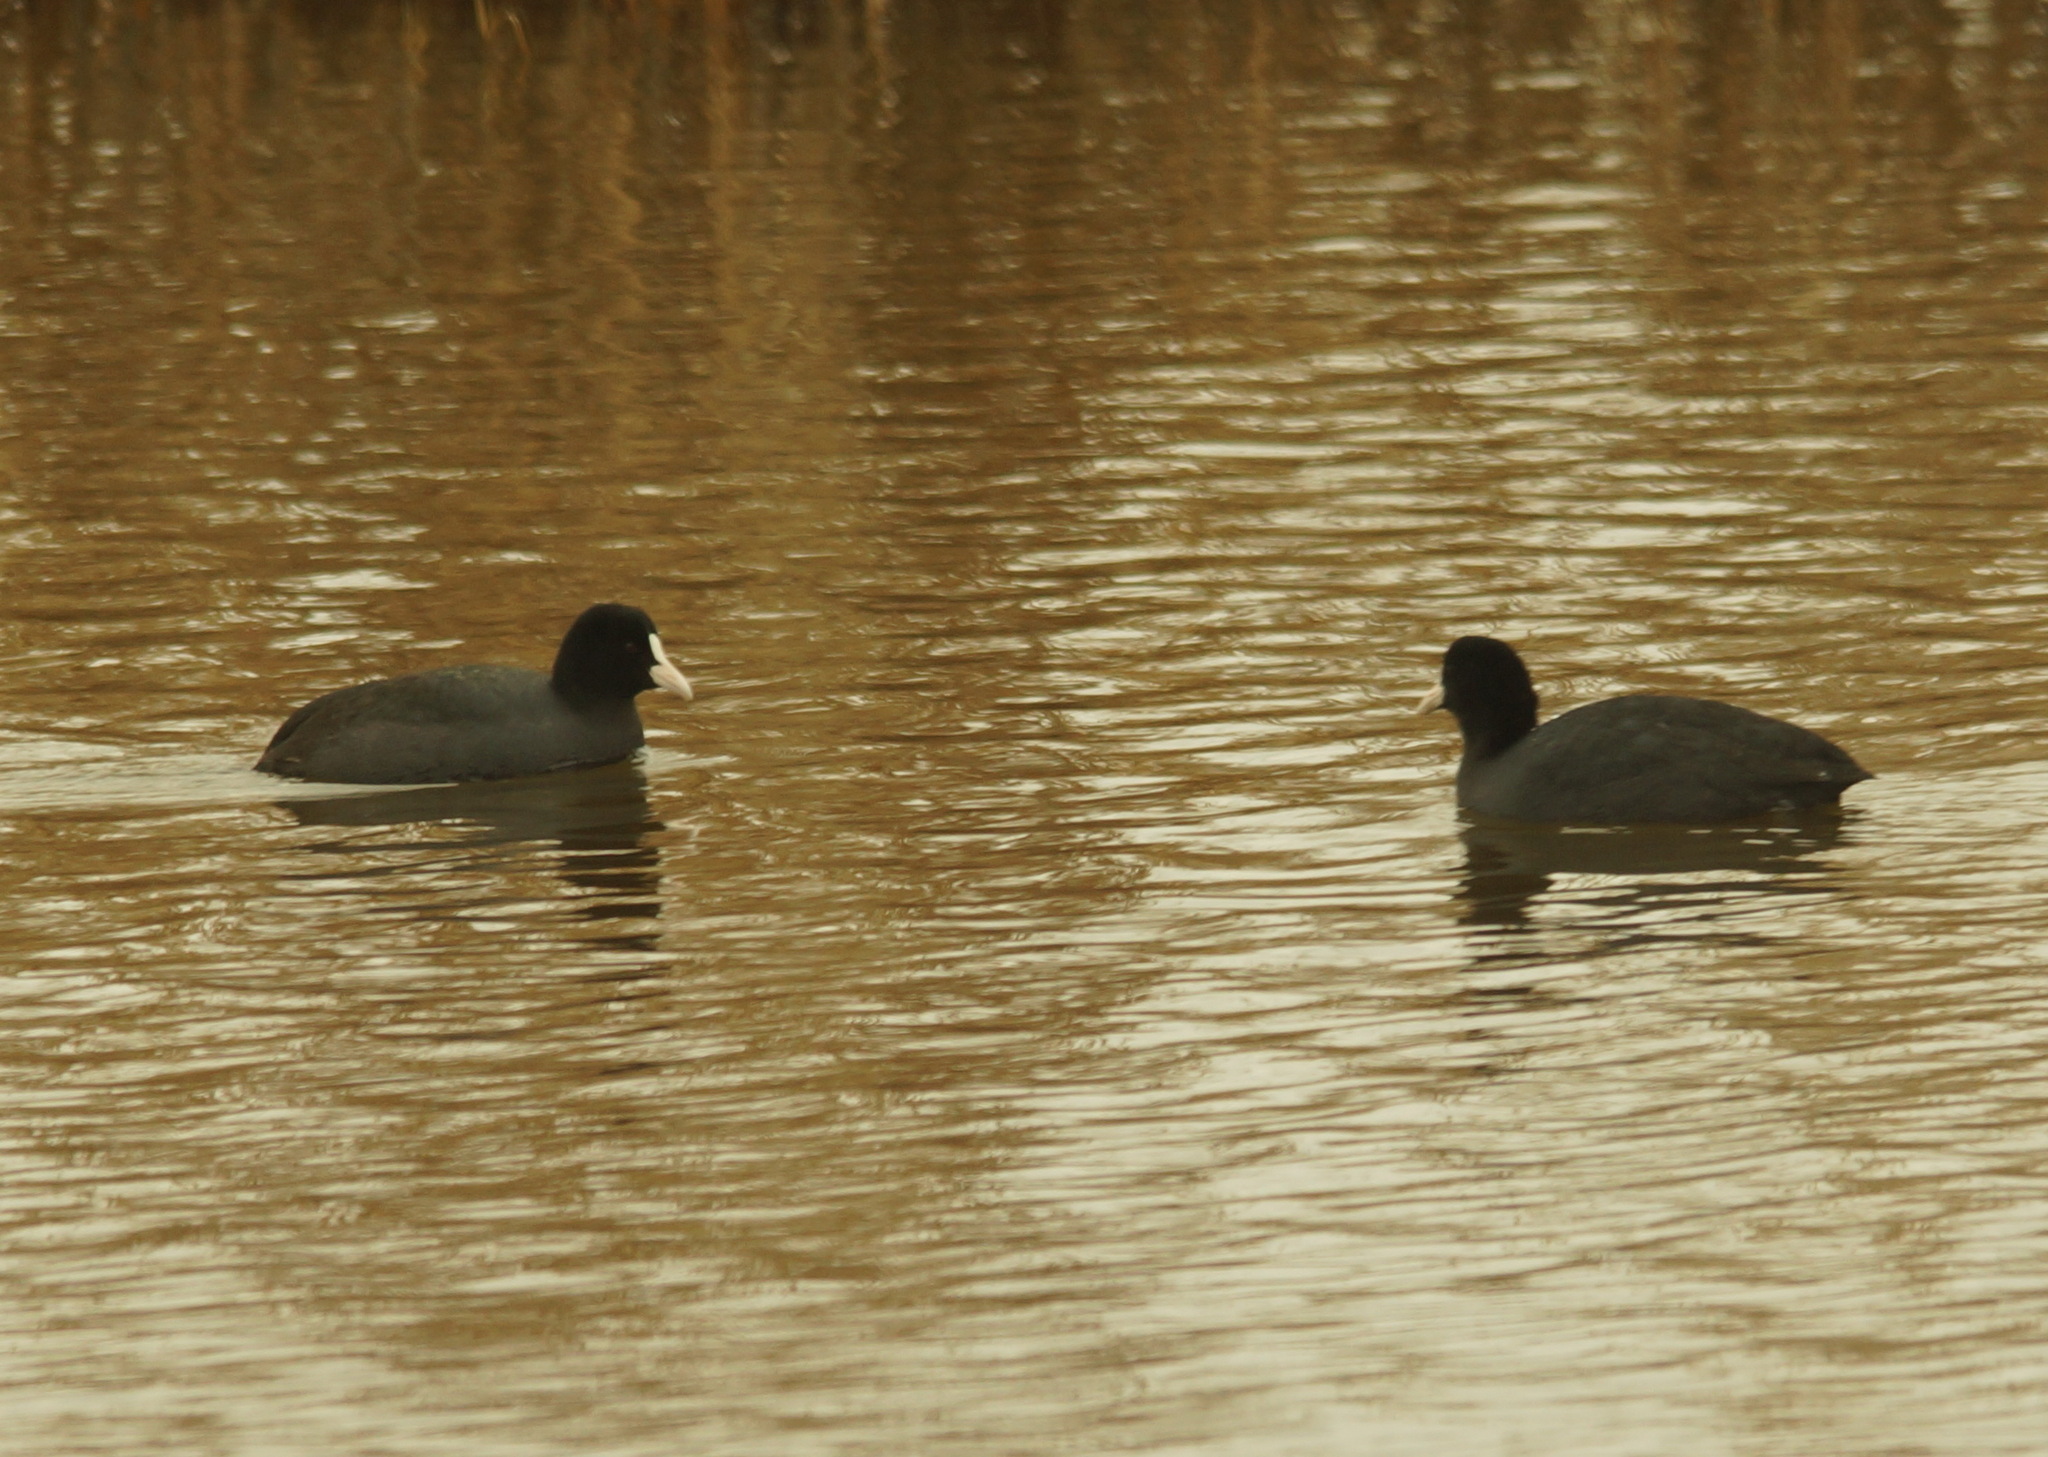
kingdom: Animalia
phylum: Chordata
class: Aves
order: Gruiformes
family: Rallidae
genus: Fulica
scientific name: Fulica atra
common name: Eurasian coot
